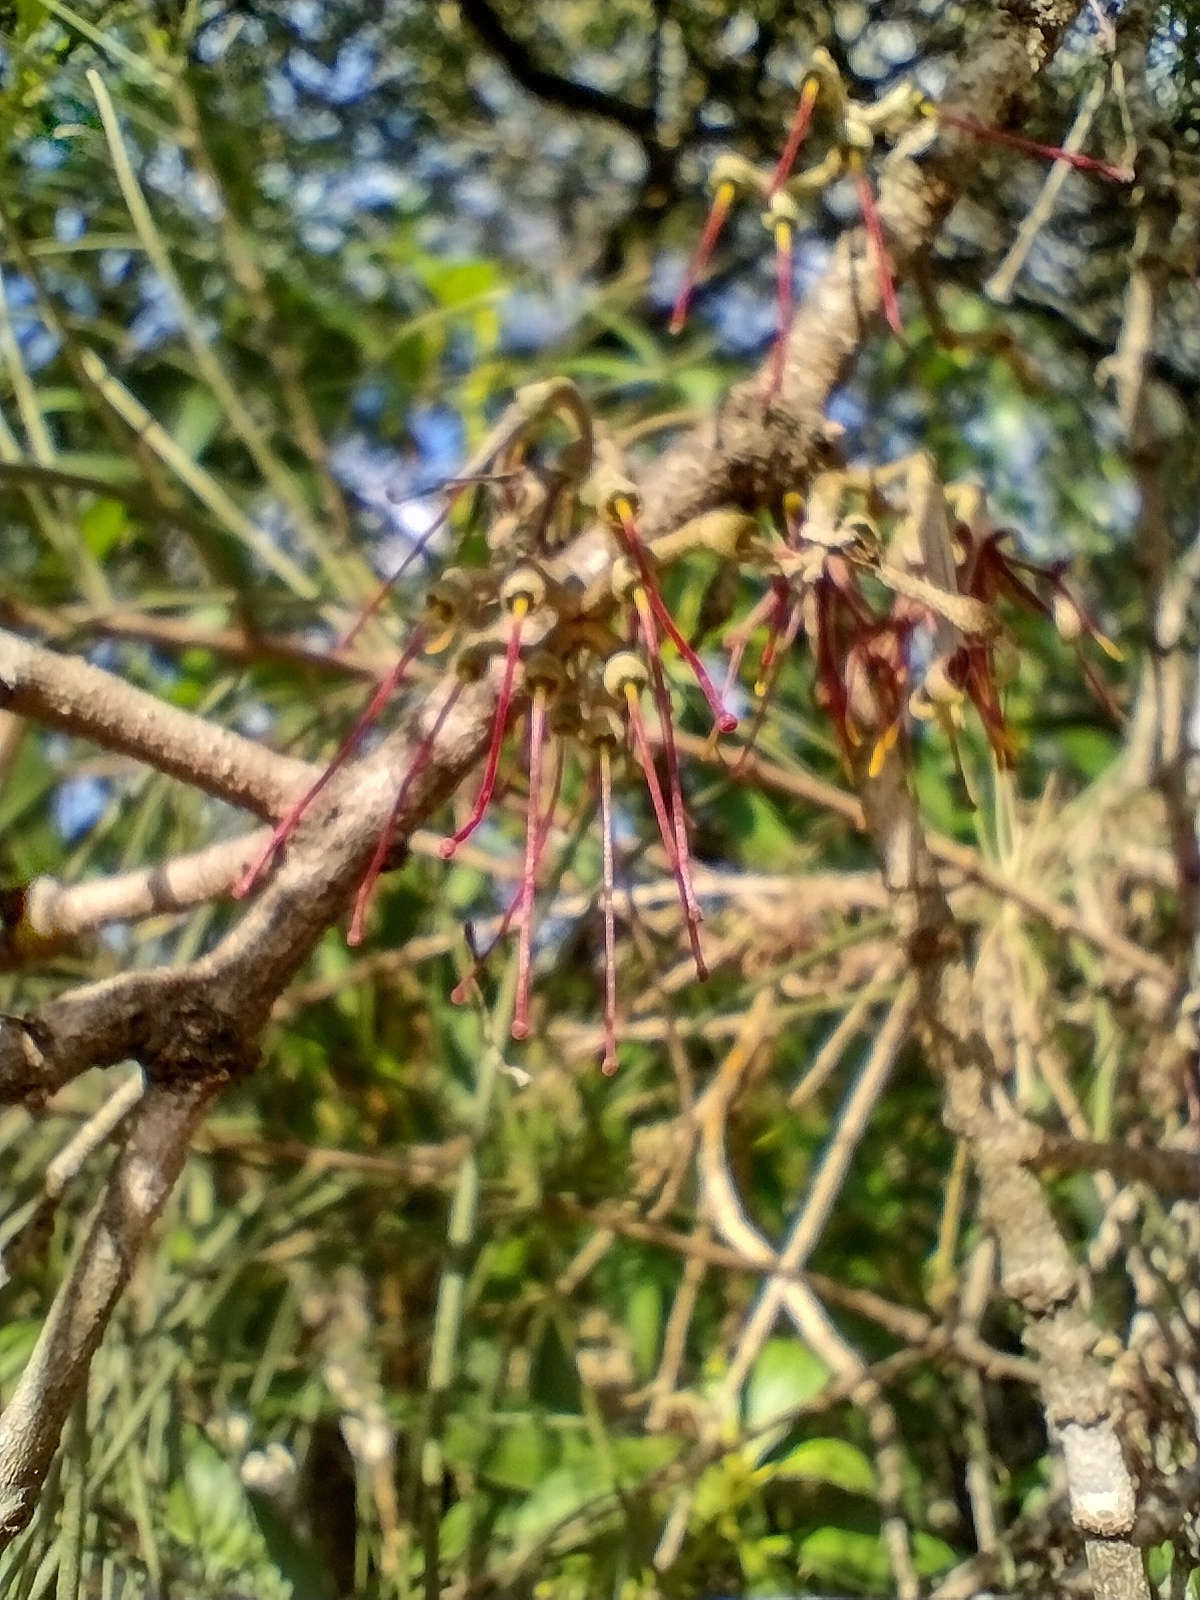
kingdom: Plantae
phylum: Tracheophyta
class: Magnoliopsida
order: Santalales
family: Loranthaceae
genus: Amyema
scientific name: Amyema cambagei
